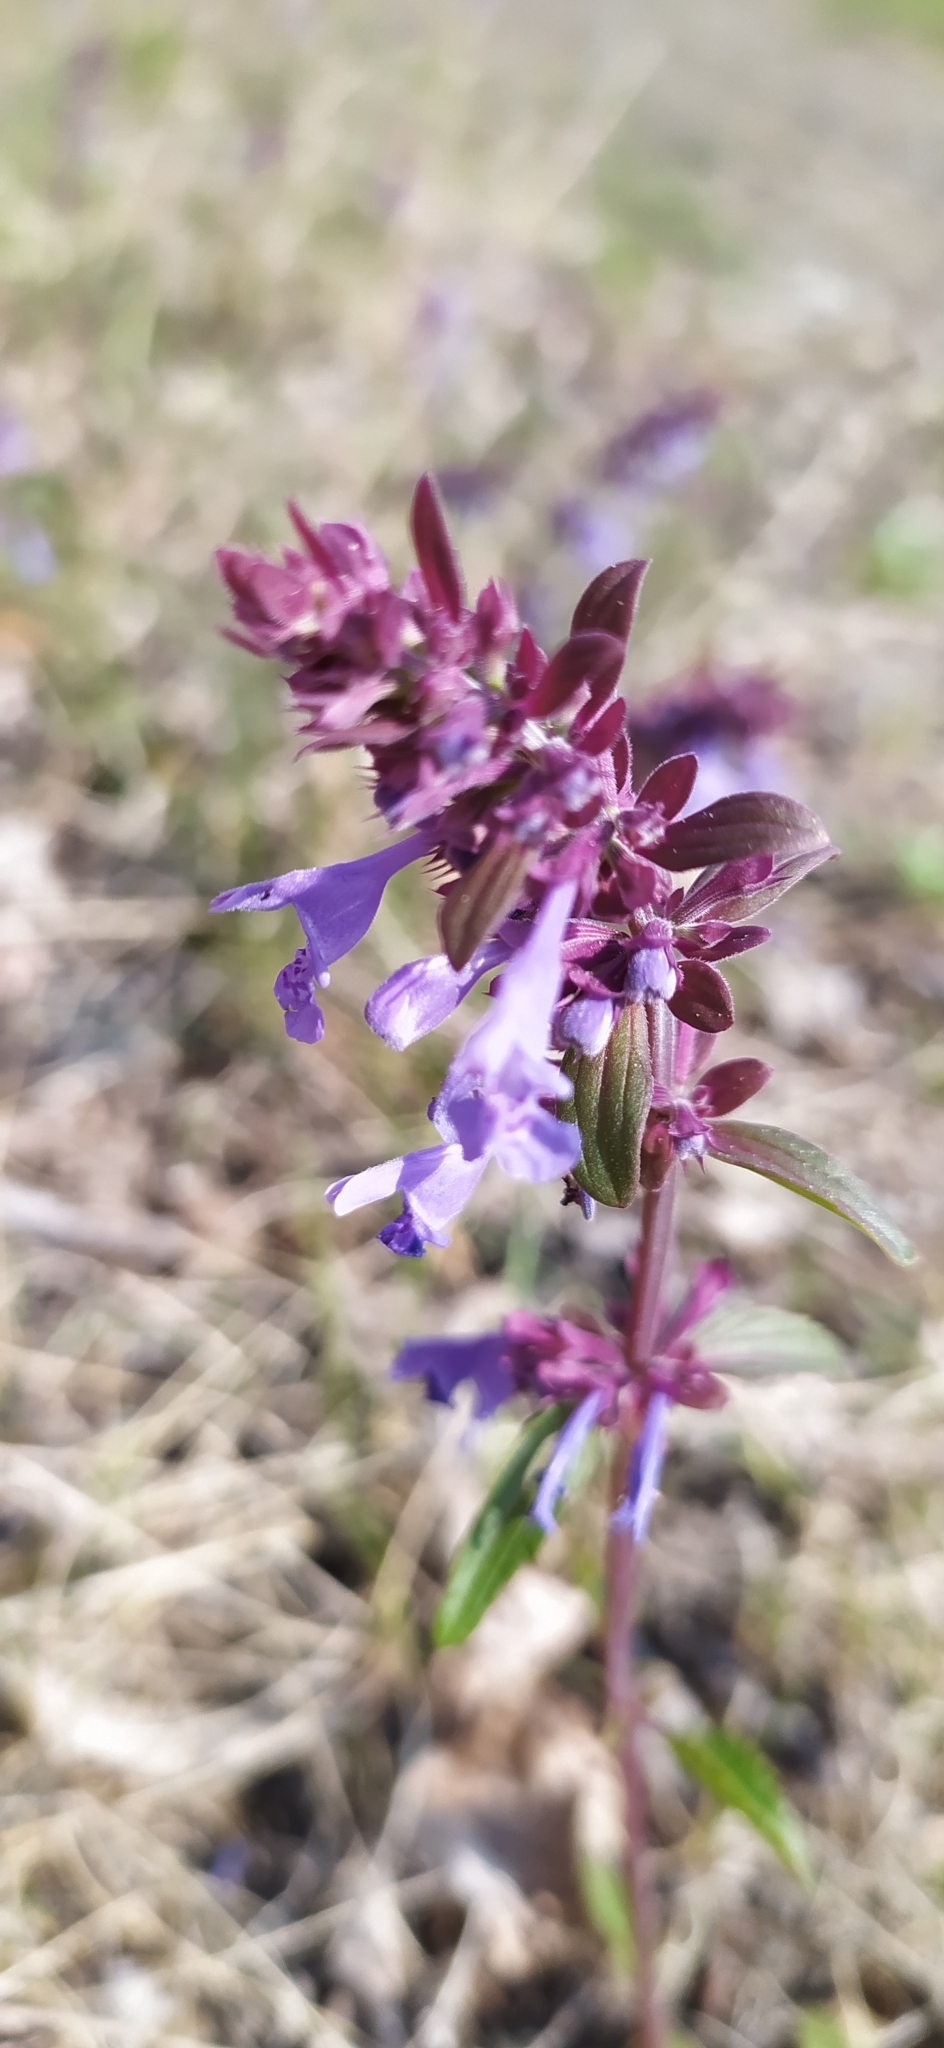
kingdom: Plantae
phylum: Tracheophyta
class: Magnoliopsida
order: Lamiales
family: Lamiaceae
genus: Dracocephalum
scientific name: Dracocephalum nutans
